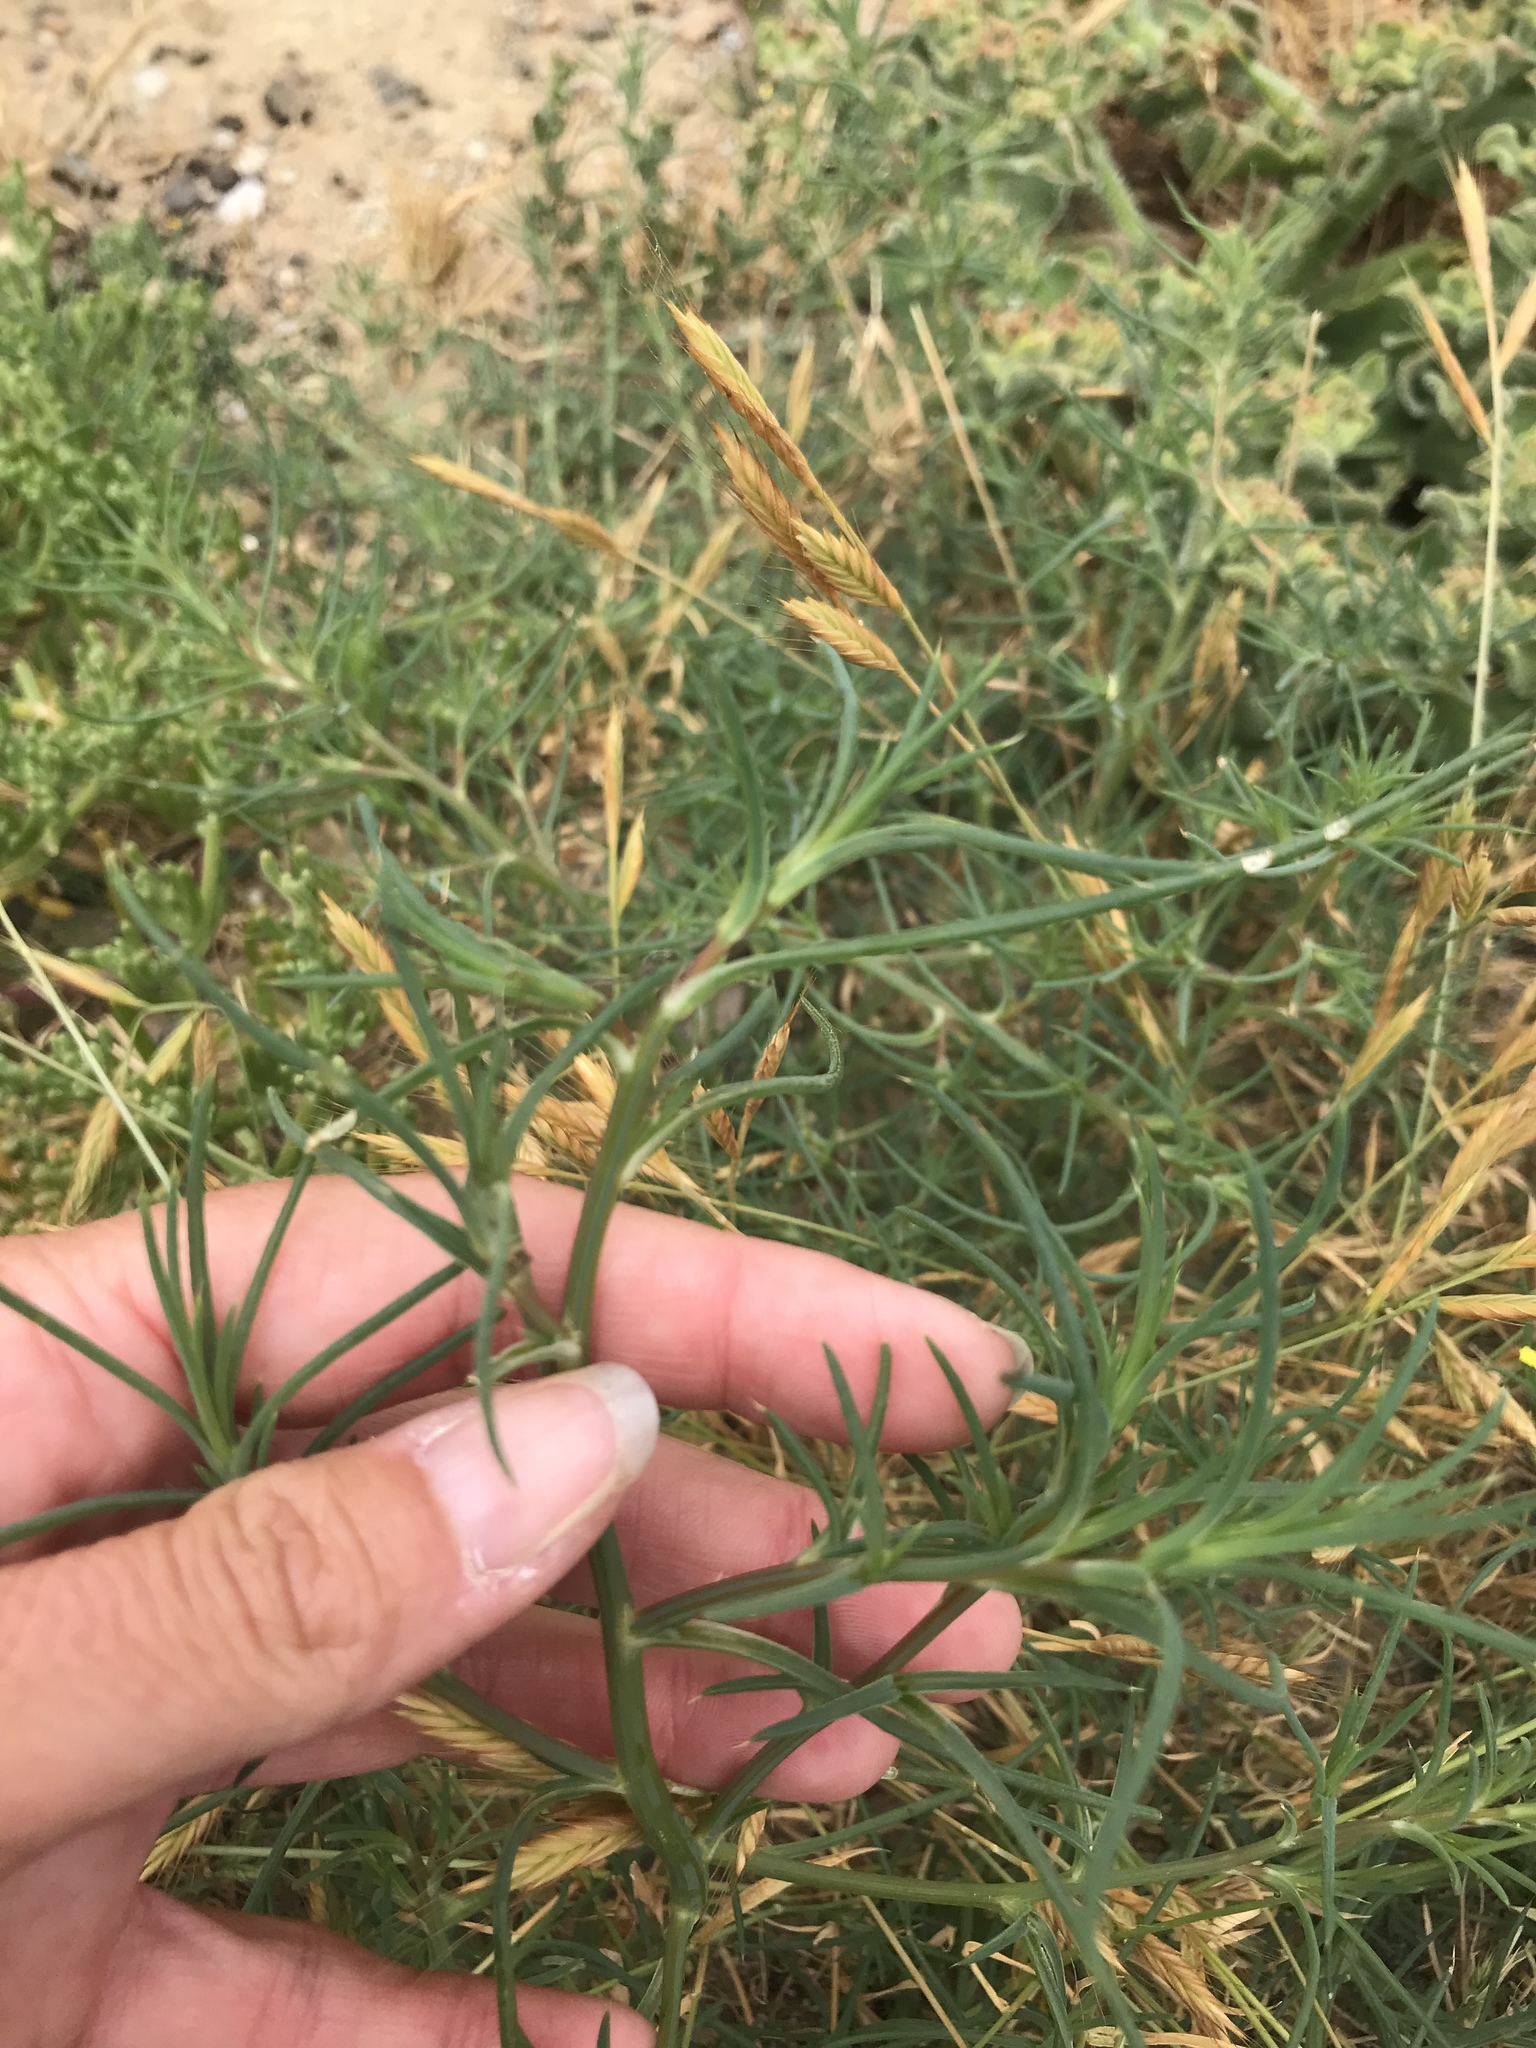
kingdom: Plantae
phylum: Tracheophyta
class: Magnoliopsida
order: Caryophyllales
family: Amaranthaceae
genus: Salsola
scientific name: Salsola australis
